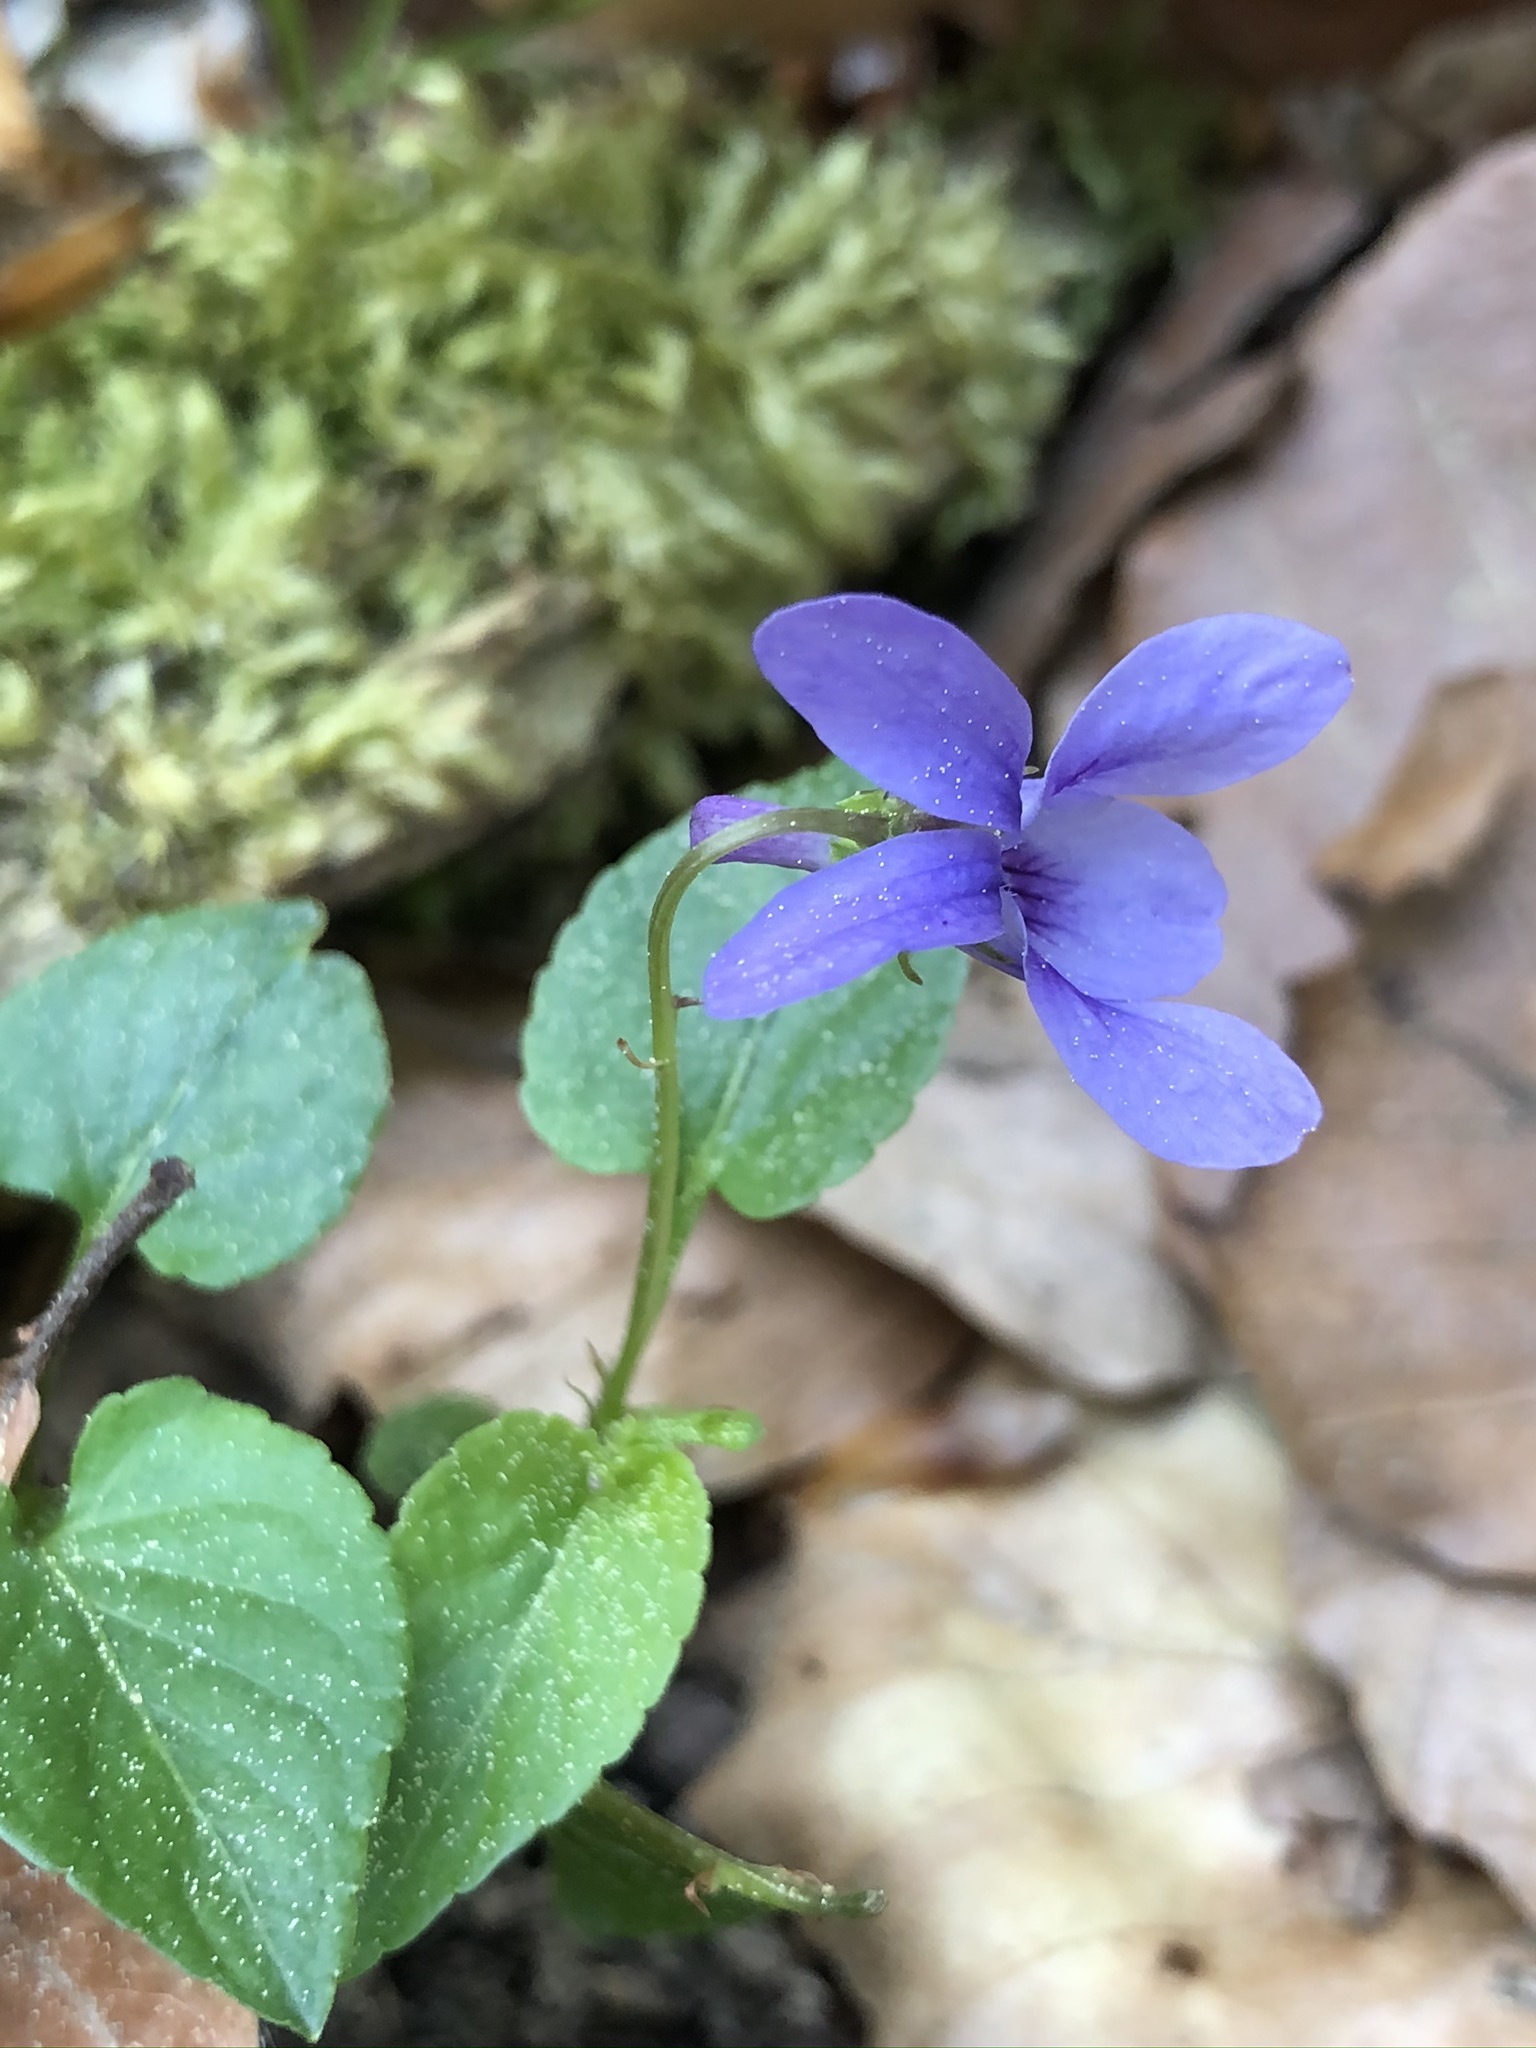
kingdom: Plantae
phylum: Tracheophyta
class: Magnoliopsida
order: Malpighiales
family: Violaceae
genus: Viola
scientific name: Viola reichenbachiana
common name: Early dog-violet
